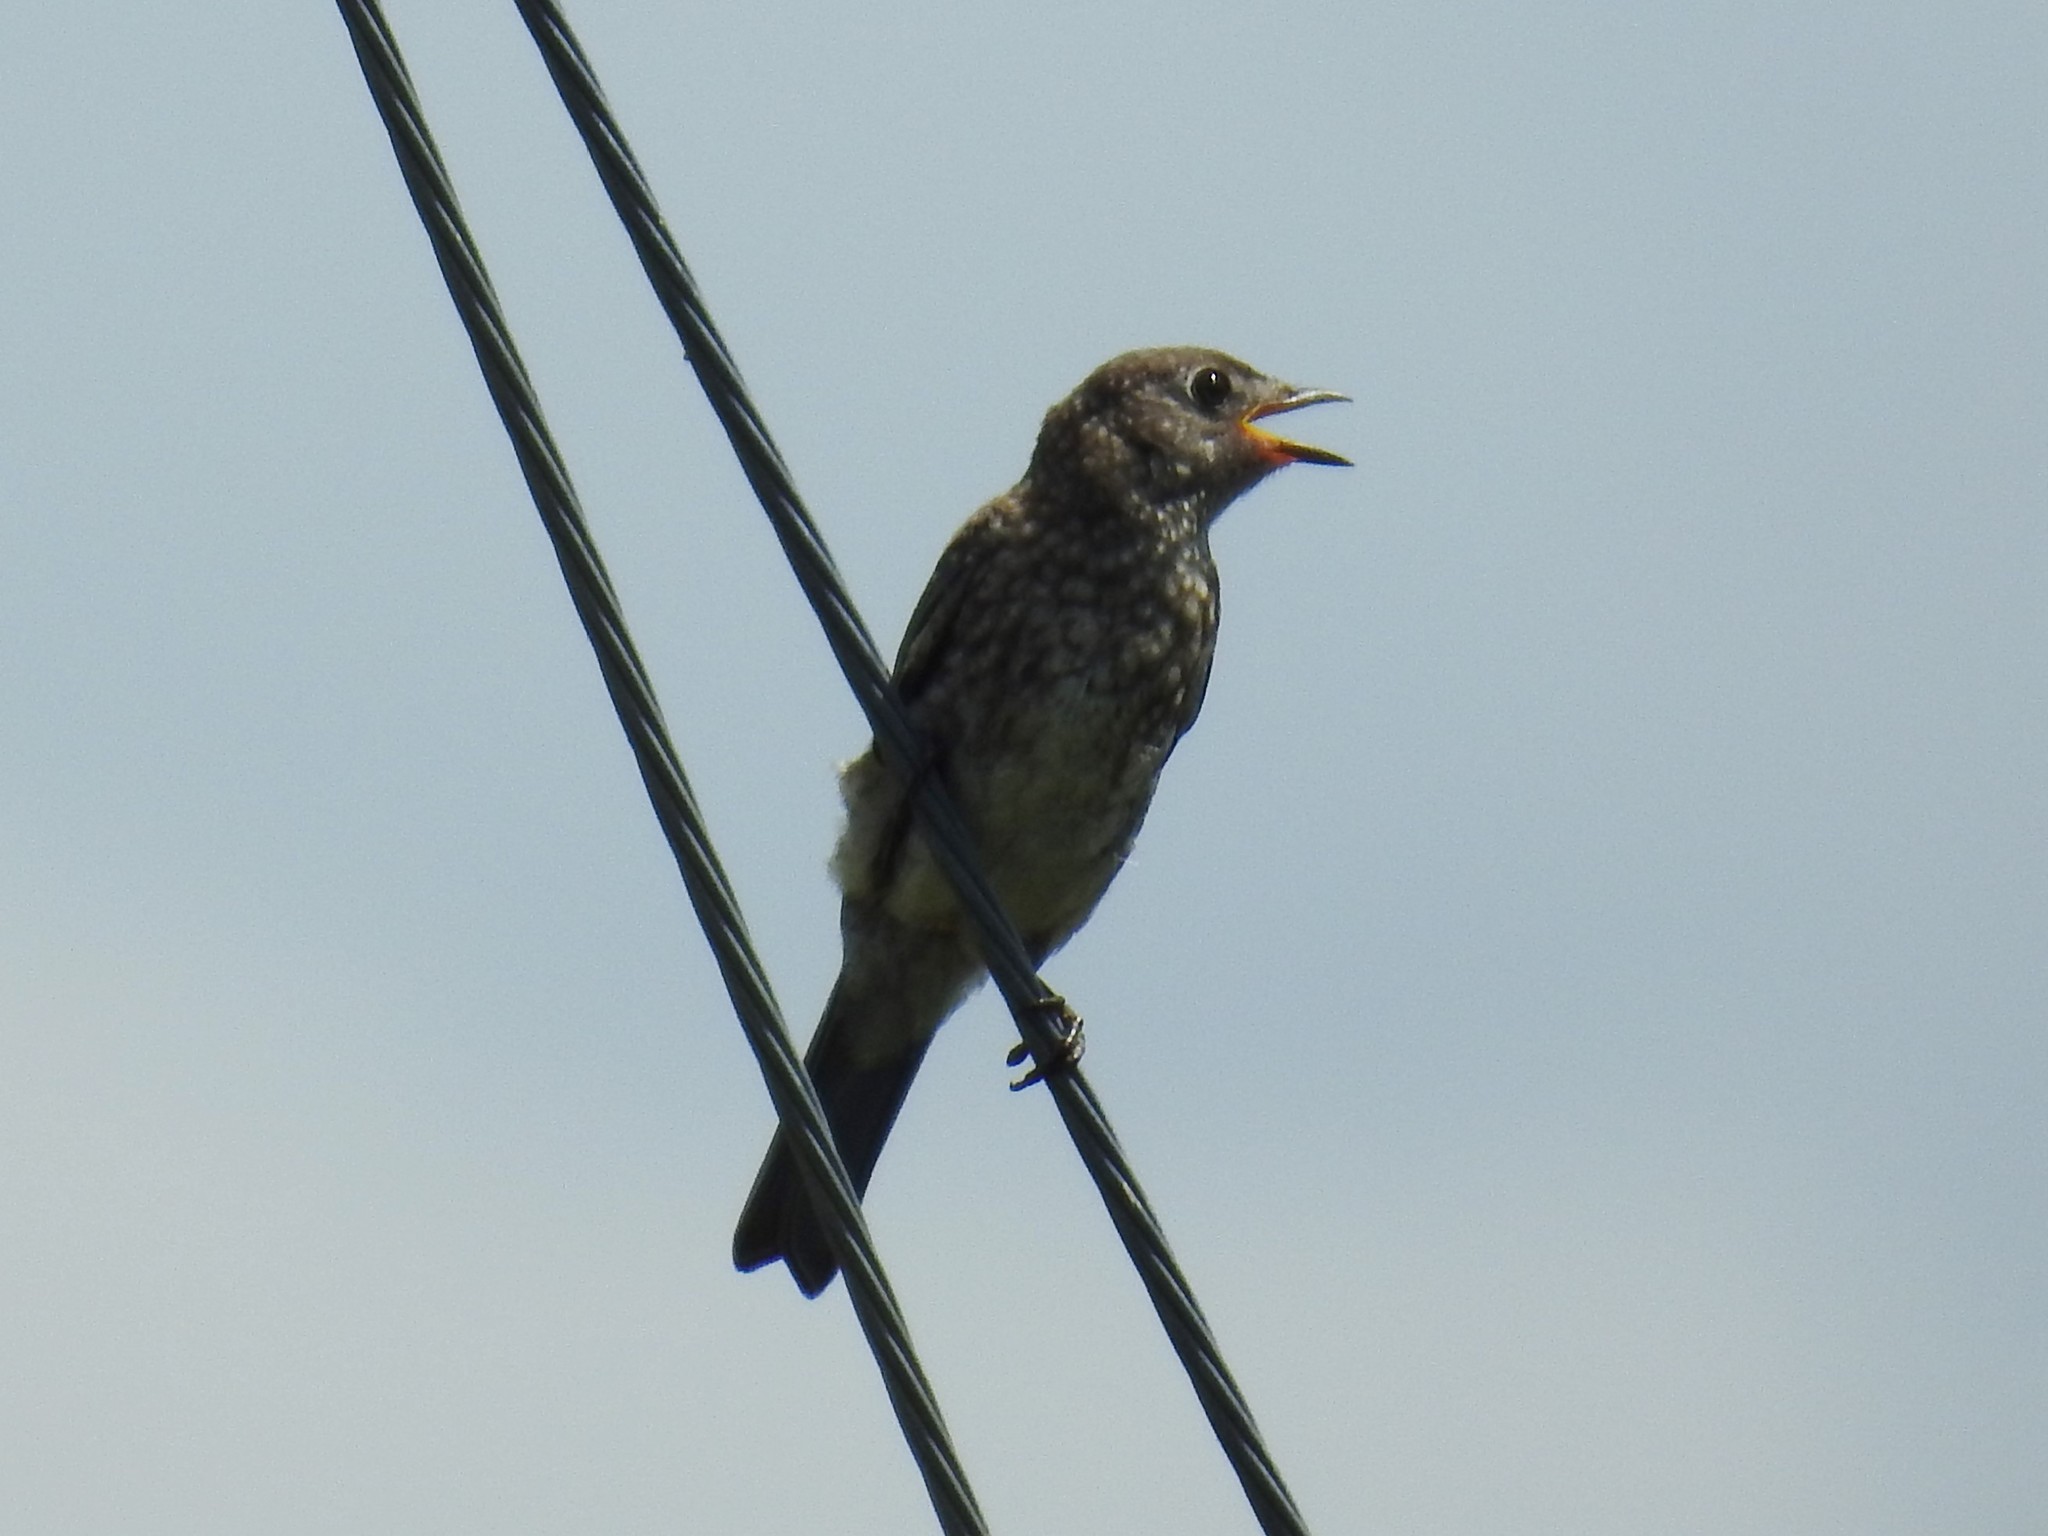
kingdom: Animalia
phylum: Chordata
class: Aves
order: Passeriformes
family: Turdidae
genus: Sialia
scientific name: Sialia sialis
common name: Eastern bluebird
